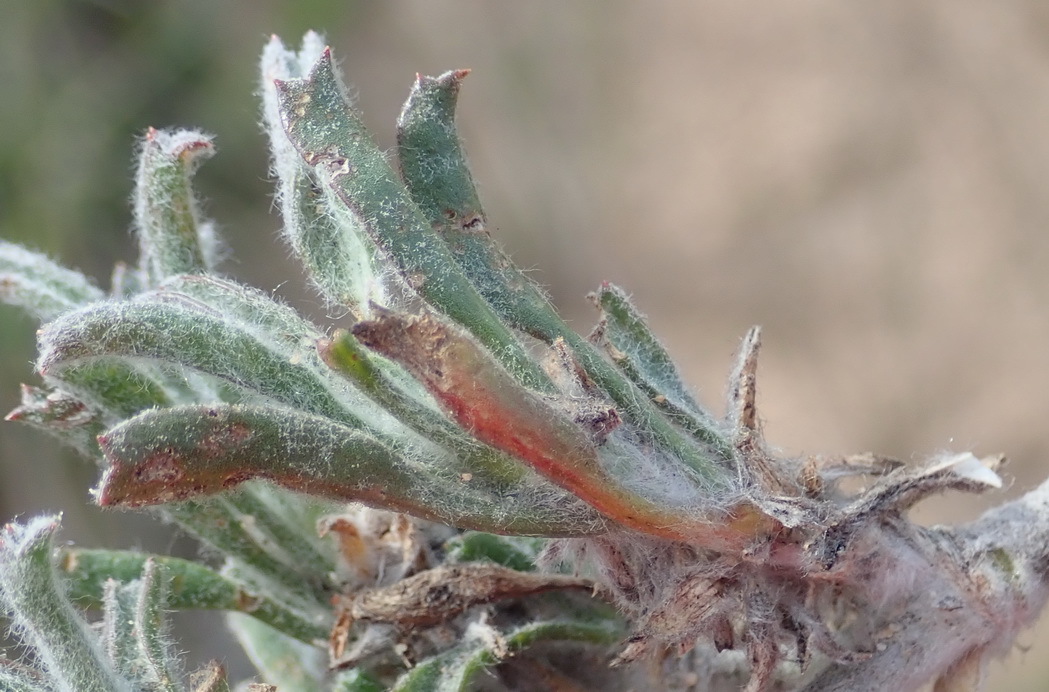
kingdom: Plantae
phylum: Tracheophyta
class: Magnoliopsida
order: Apiales
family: Apiaceae
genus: Centella
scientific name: Centella tridentata
